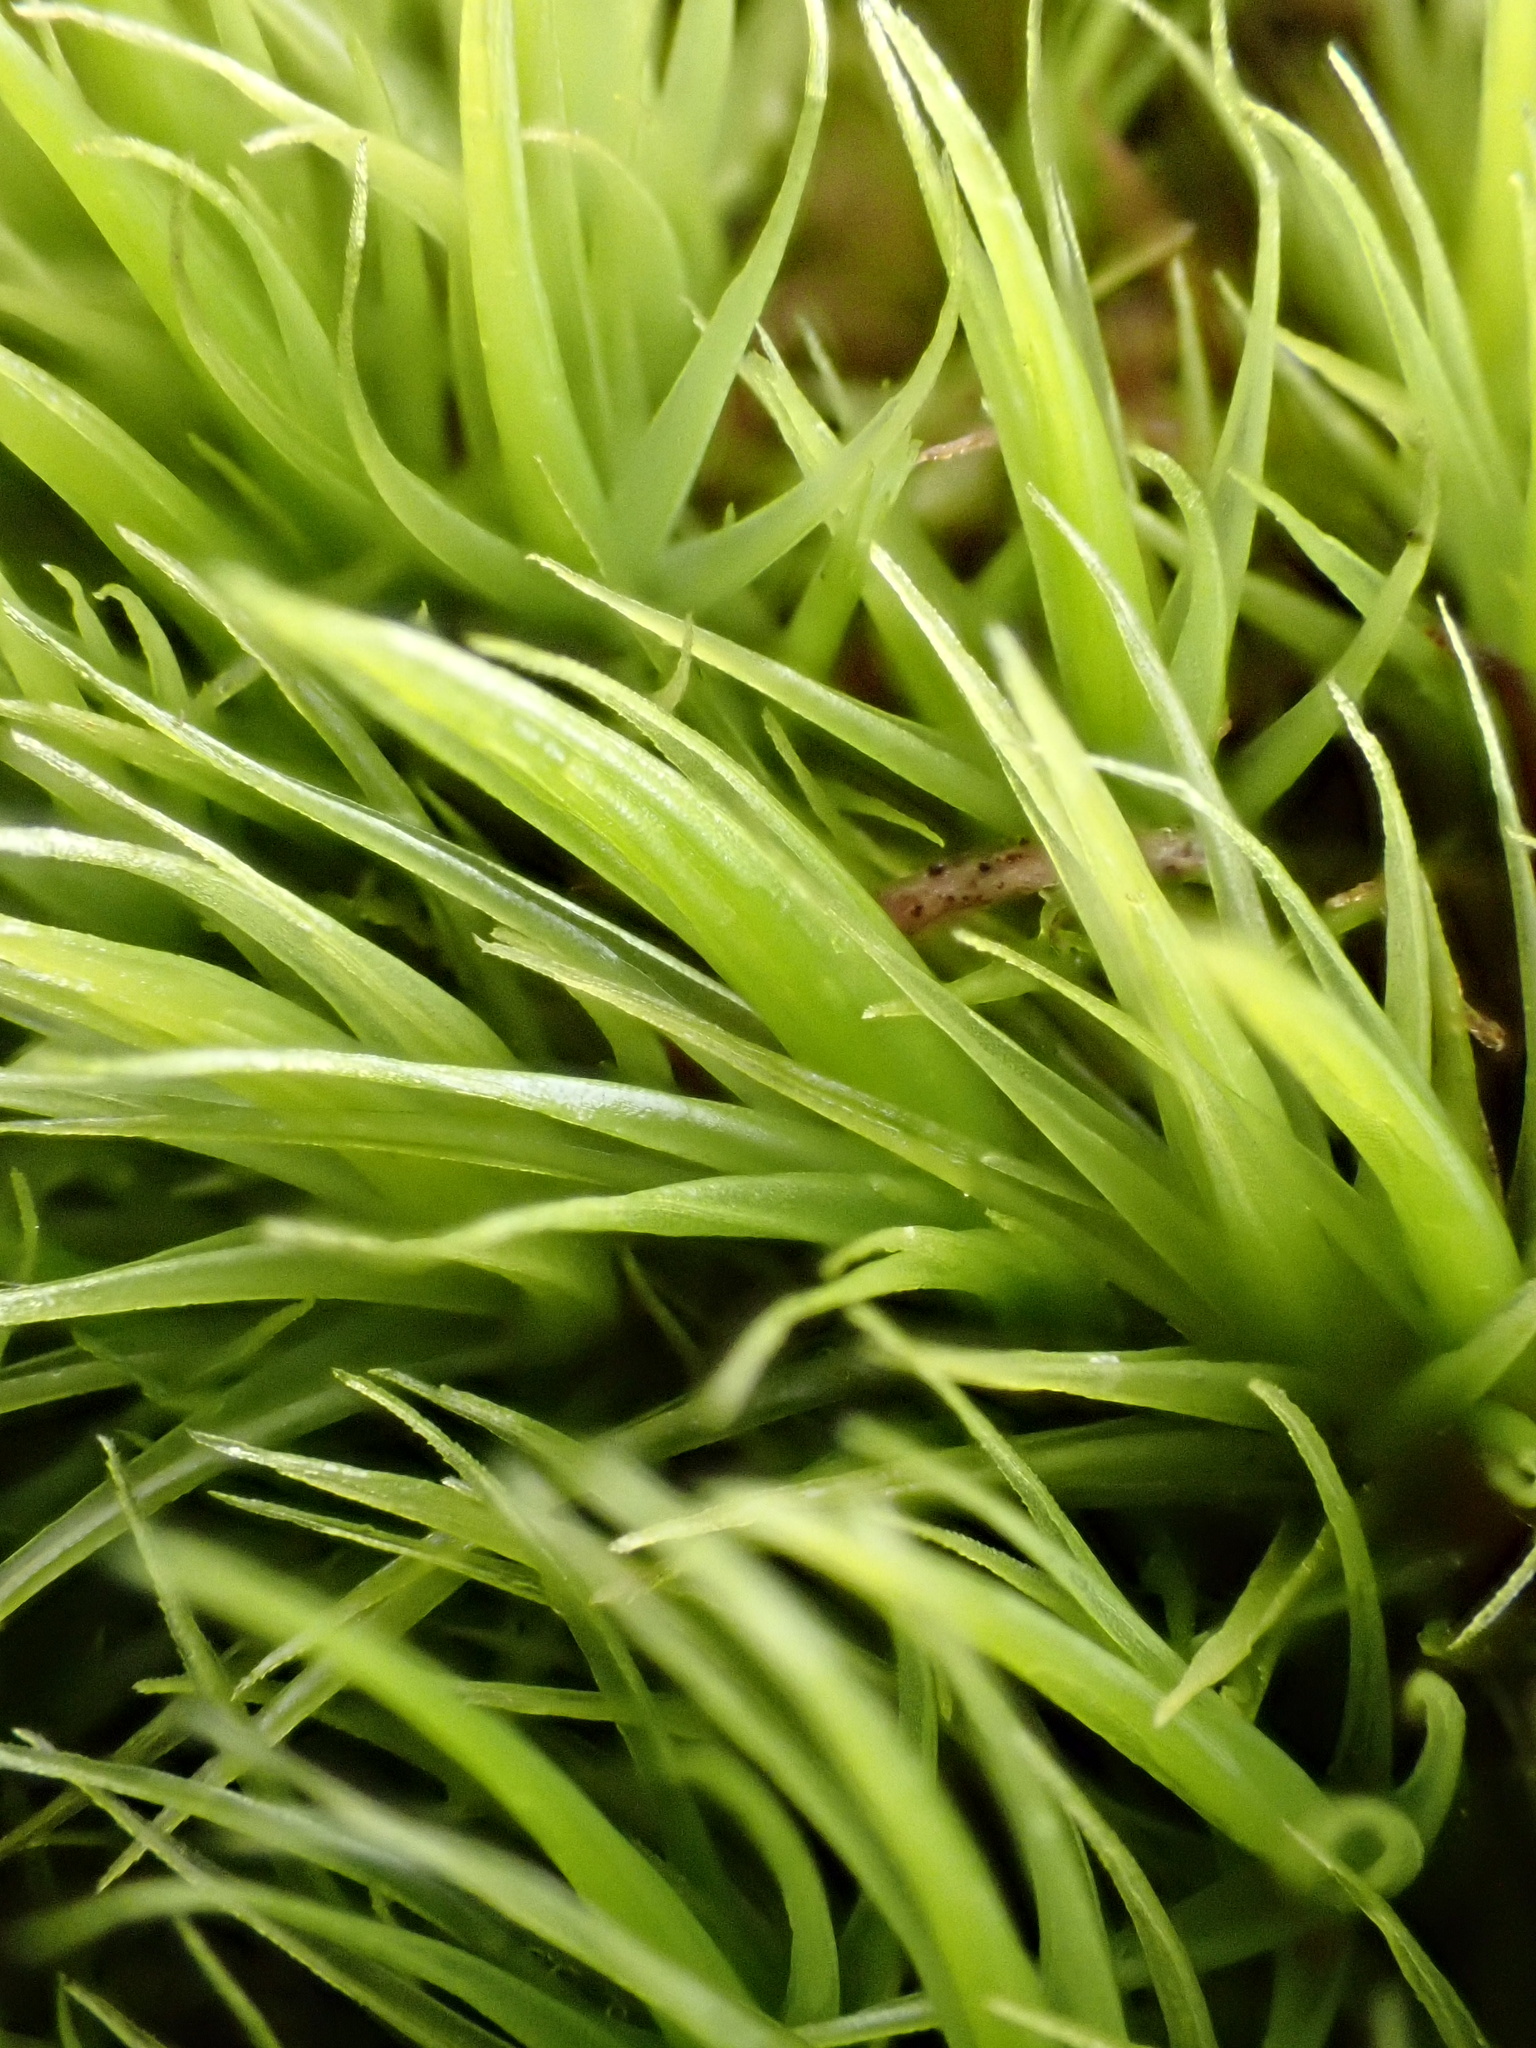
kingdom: Plantae
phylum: Bryophyta
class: Bryopsida
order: Dicranales
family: Dicranaceae
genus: Dicranum
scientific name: Dicranum scoparium
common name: Broom fork-moss
